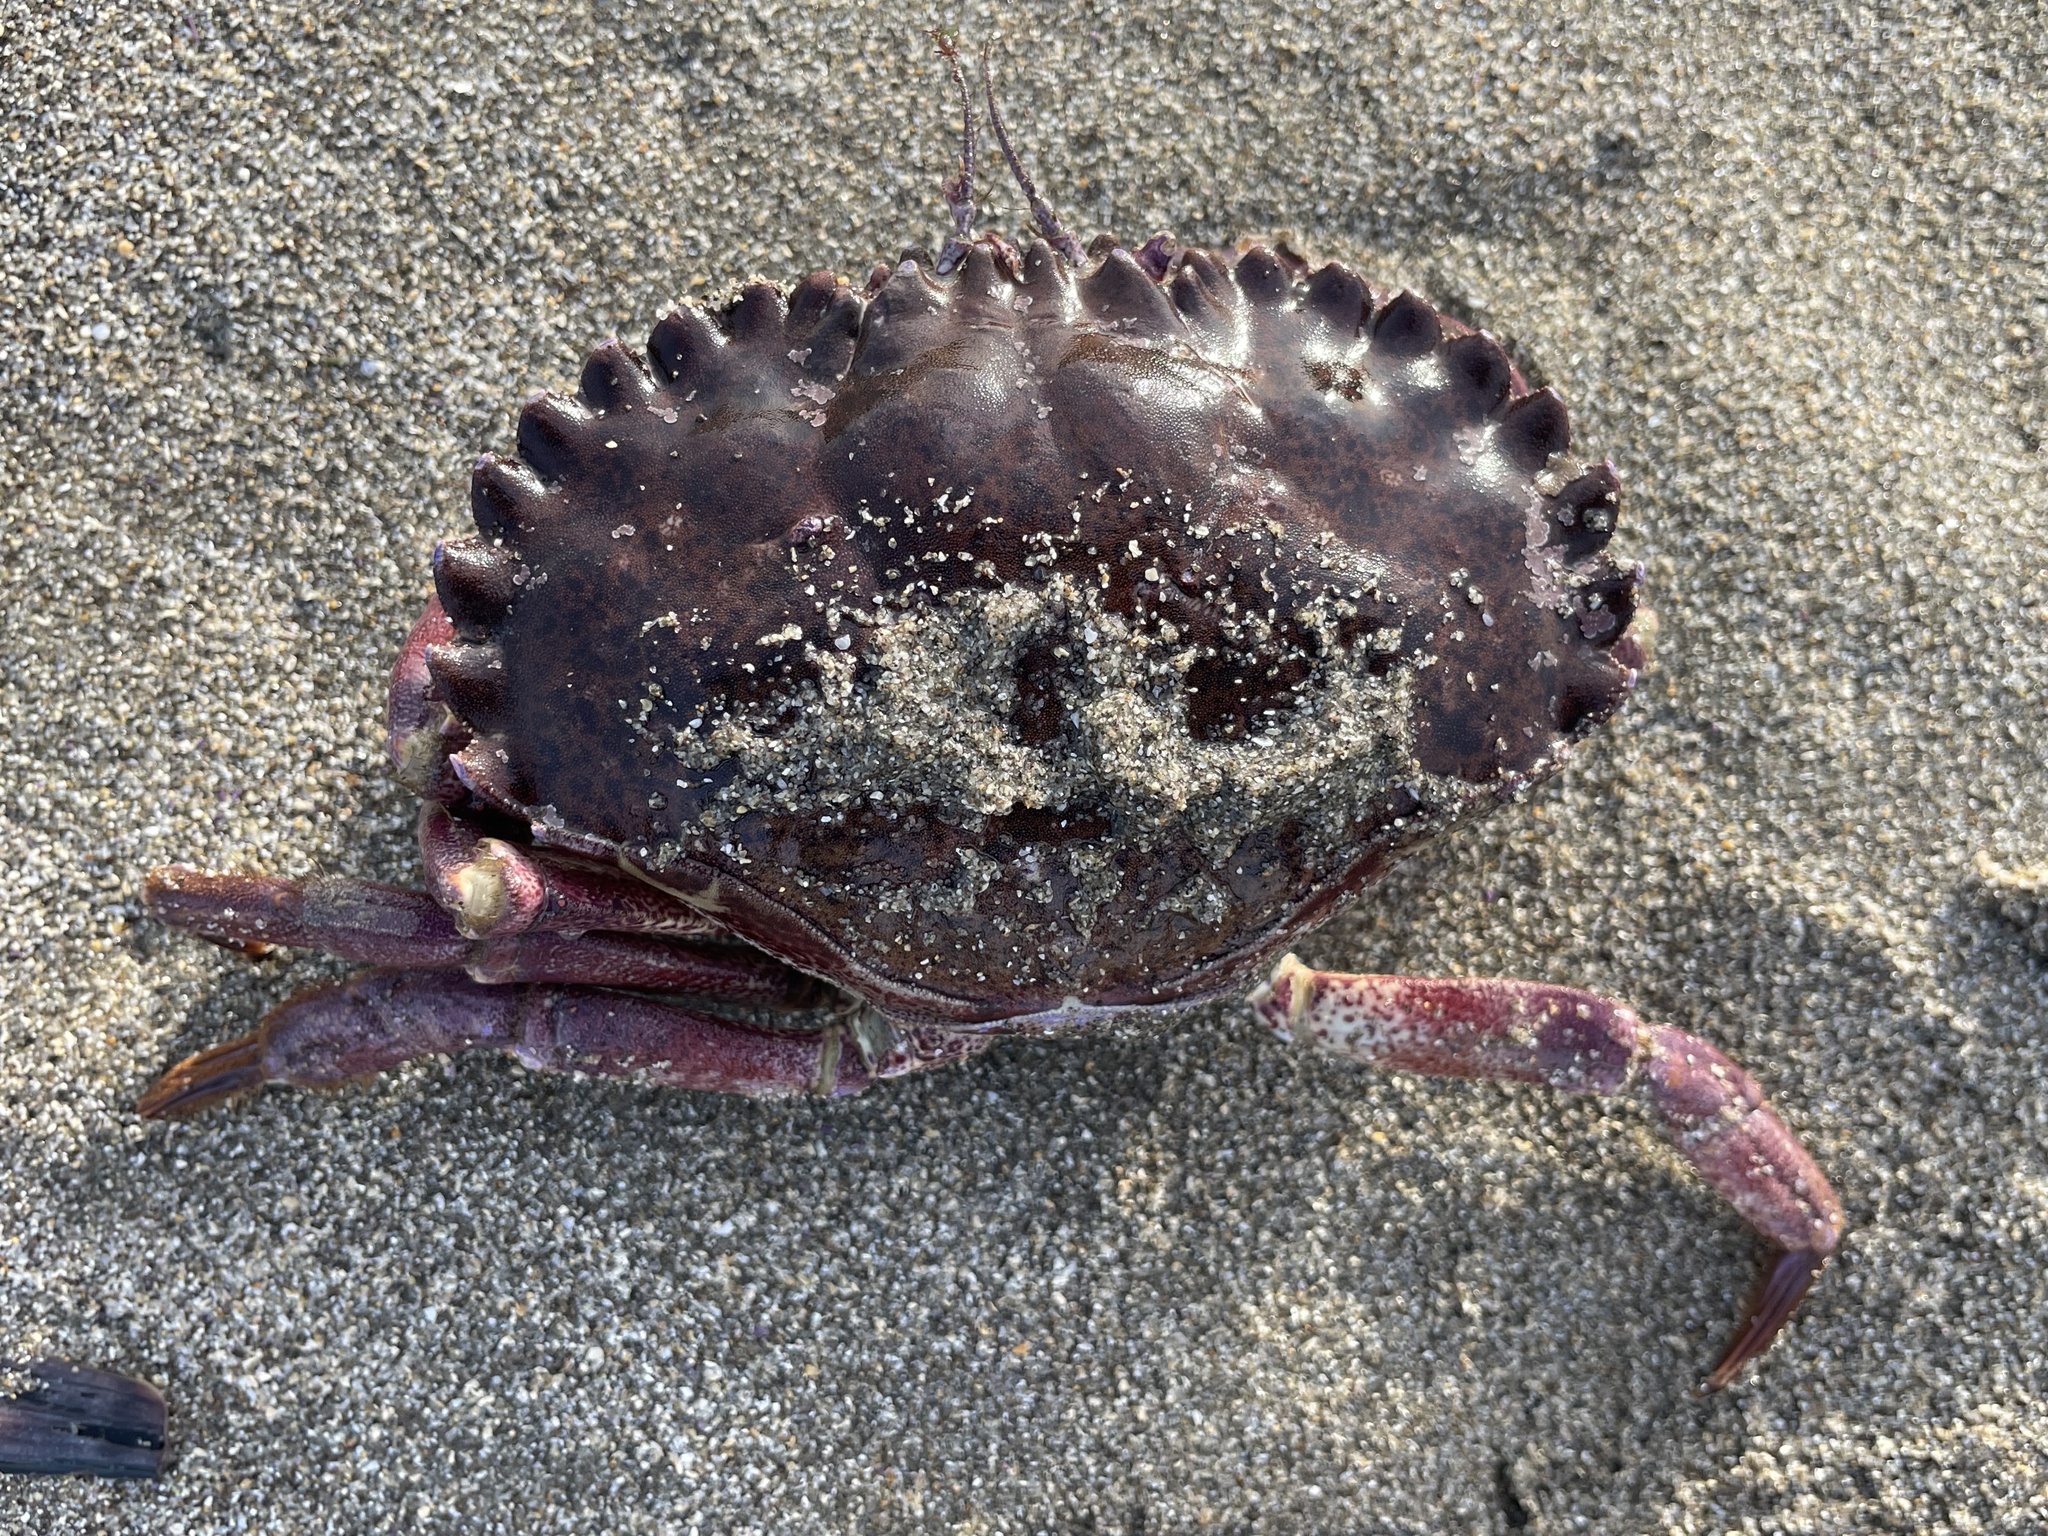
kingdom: Animalia
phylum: Arthropoda
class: Malacostraca
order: Decapoda
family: Cancridae
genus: Romaleon
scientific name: Romaleon antennarium
